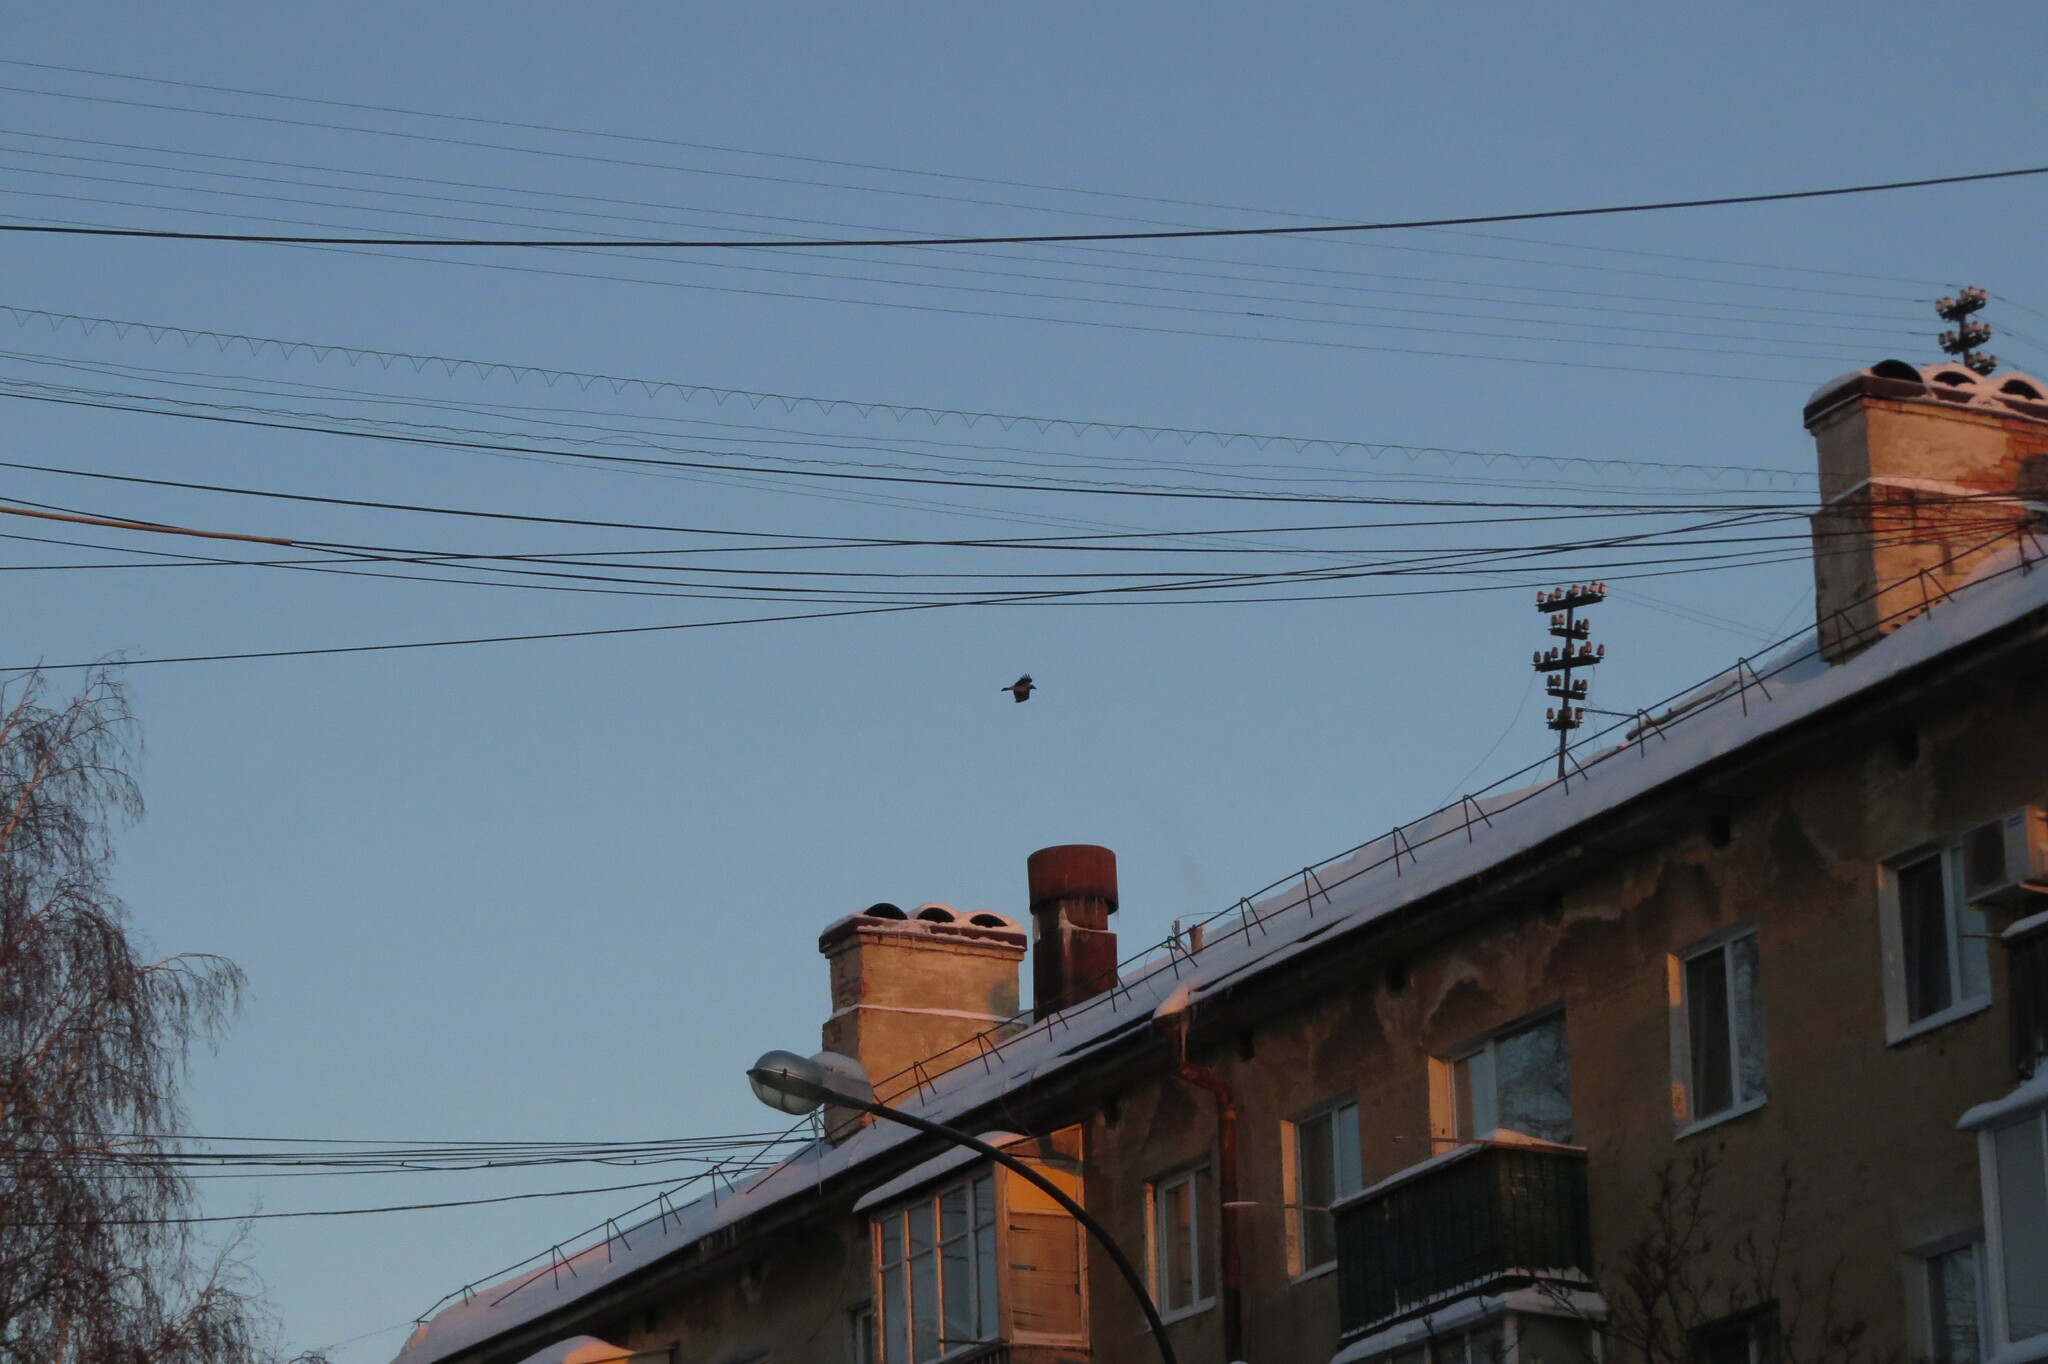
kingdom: Animalia
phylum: Chordata
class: Aves
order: Passeriformes
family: Corvidae
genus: Corvus
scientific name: Corvus cornix
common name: Hooded crow
